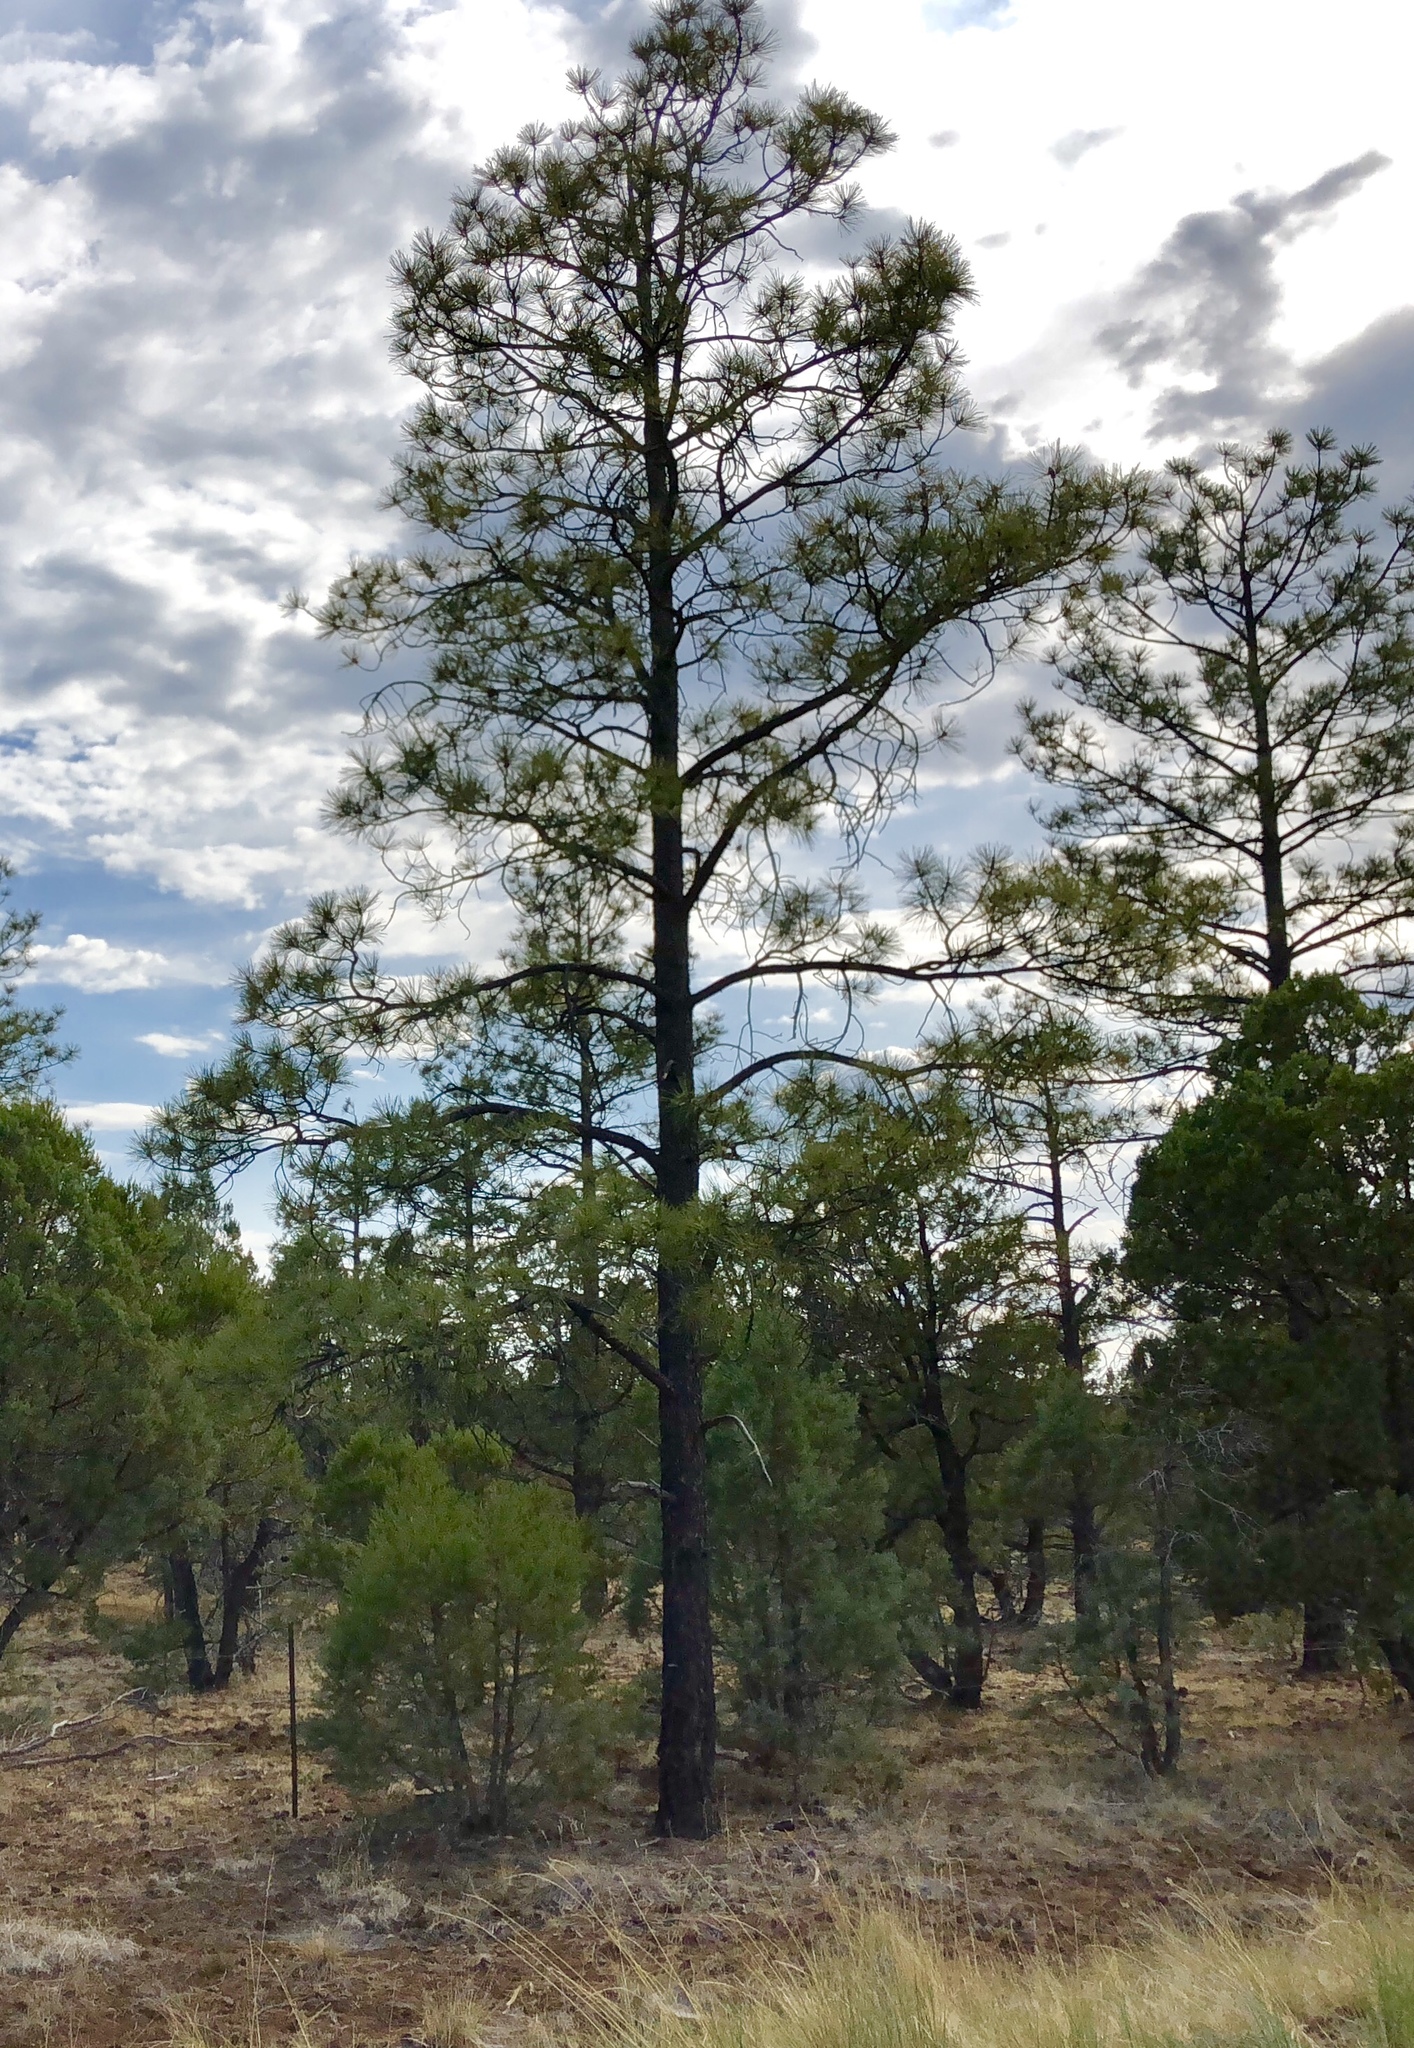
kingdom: Plantae
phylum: Tracheophyta
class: Pinopsida
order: Pinales
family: Pinaceae
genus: Pinus
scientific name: Pinus ponderosa
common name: Western yellow-pine
